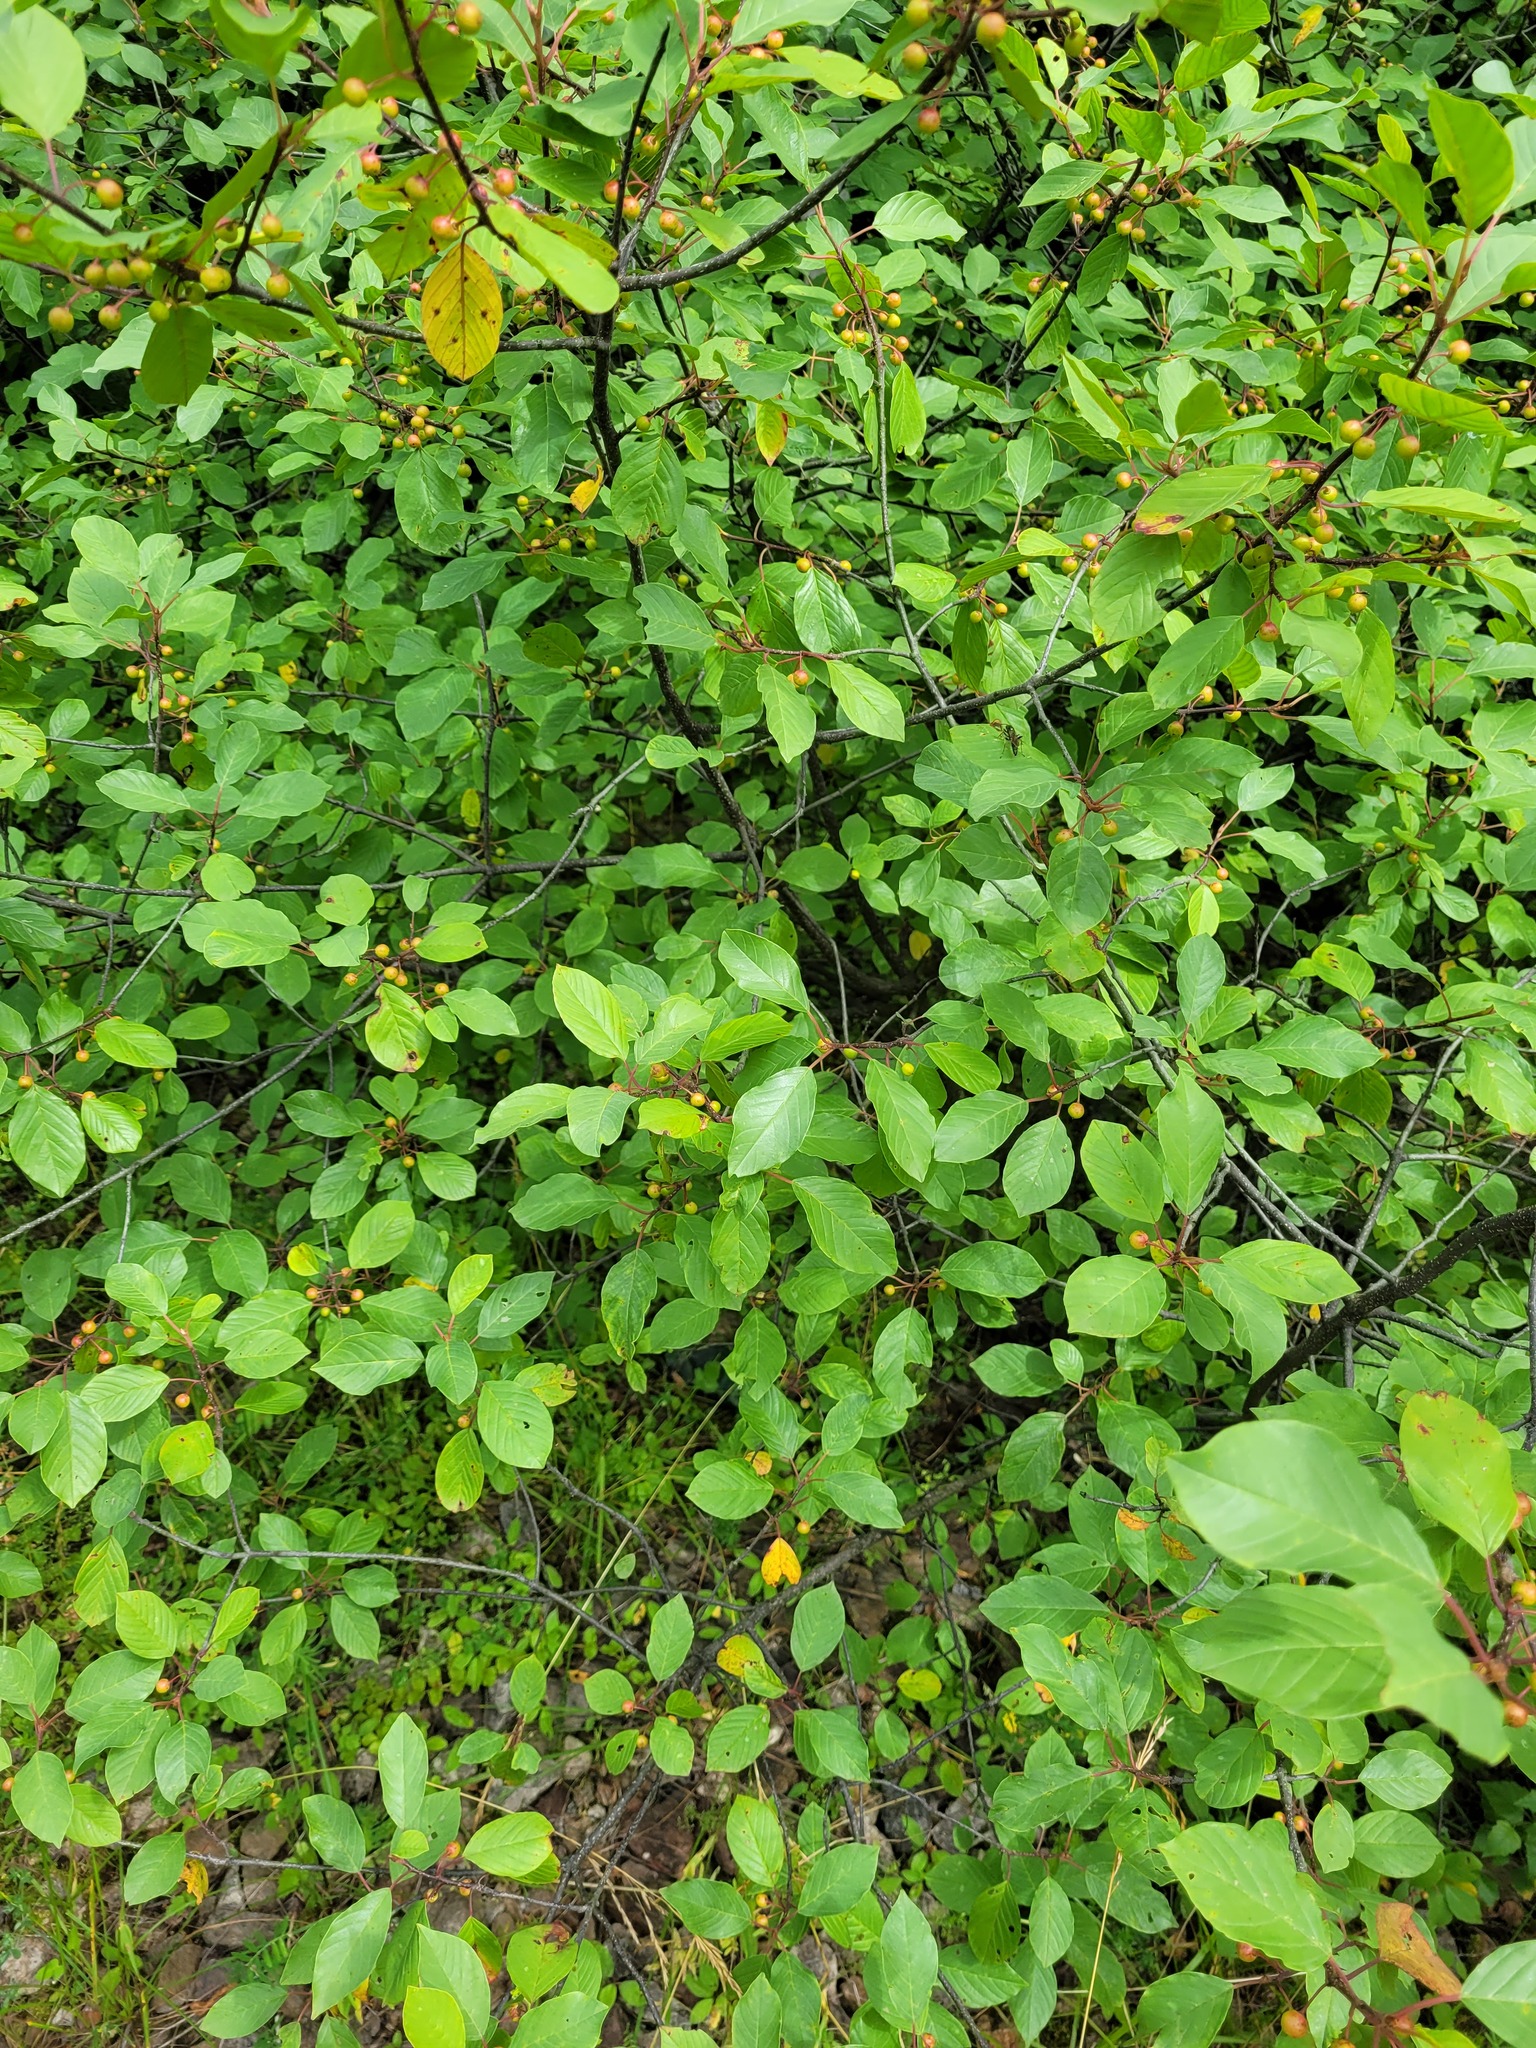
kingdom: Plantae
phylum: Tracheophyta
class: Magnoliopsida
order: Rosales
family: Rhamnaceae
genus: Frangula
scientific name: Frangula alnus
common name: Alder buckthorn
